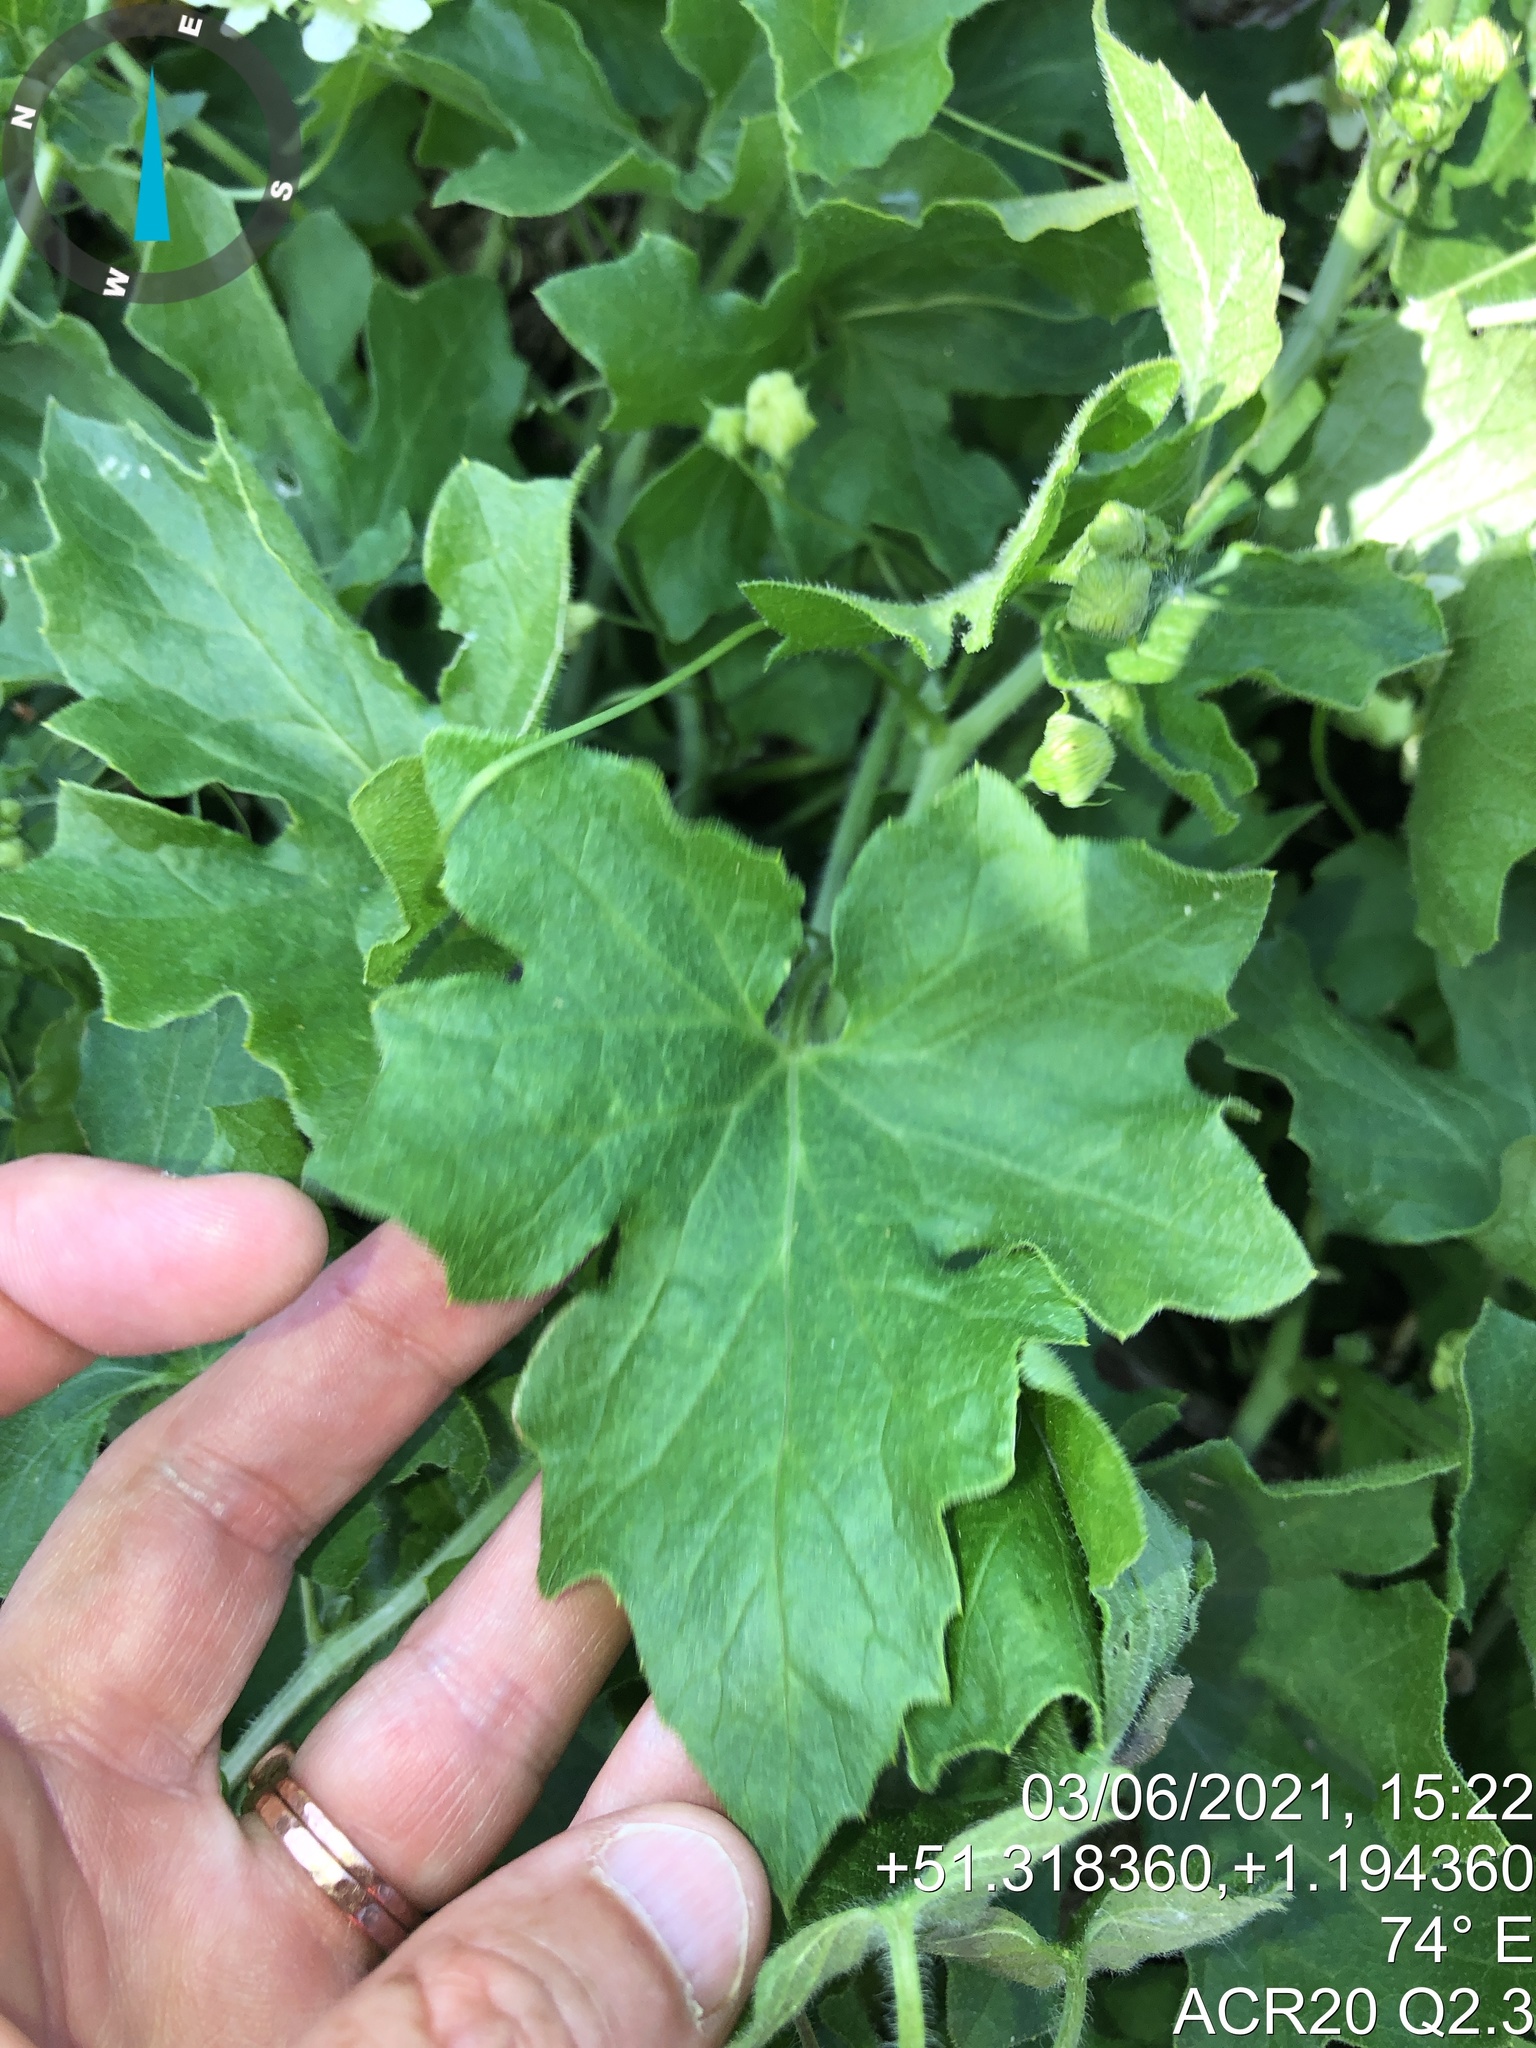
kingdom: Plantae
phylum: Tracheophyta
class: Magnoliopsida
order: Cucurbitales
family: Cucurbitaceae
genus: Bryonia
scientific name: Bryonia cretica
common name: Cretan bryony
